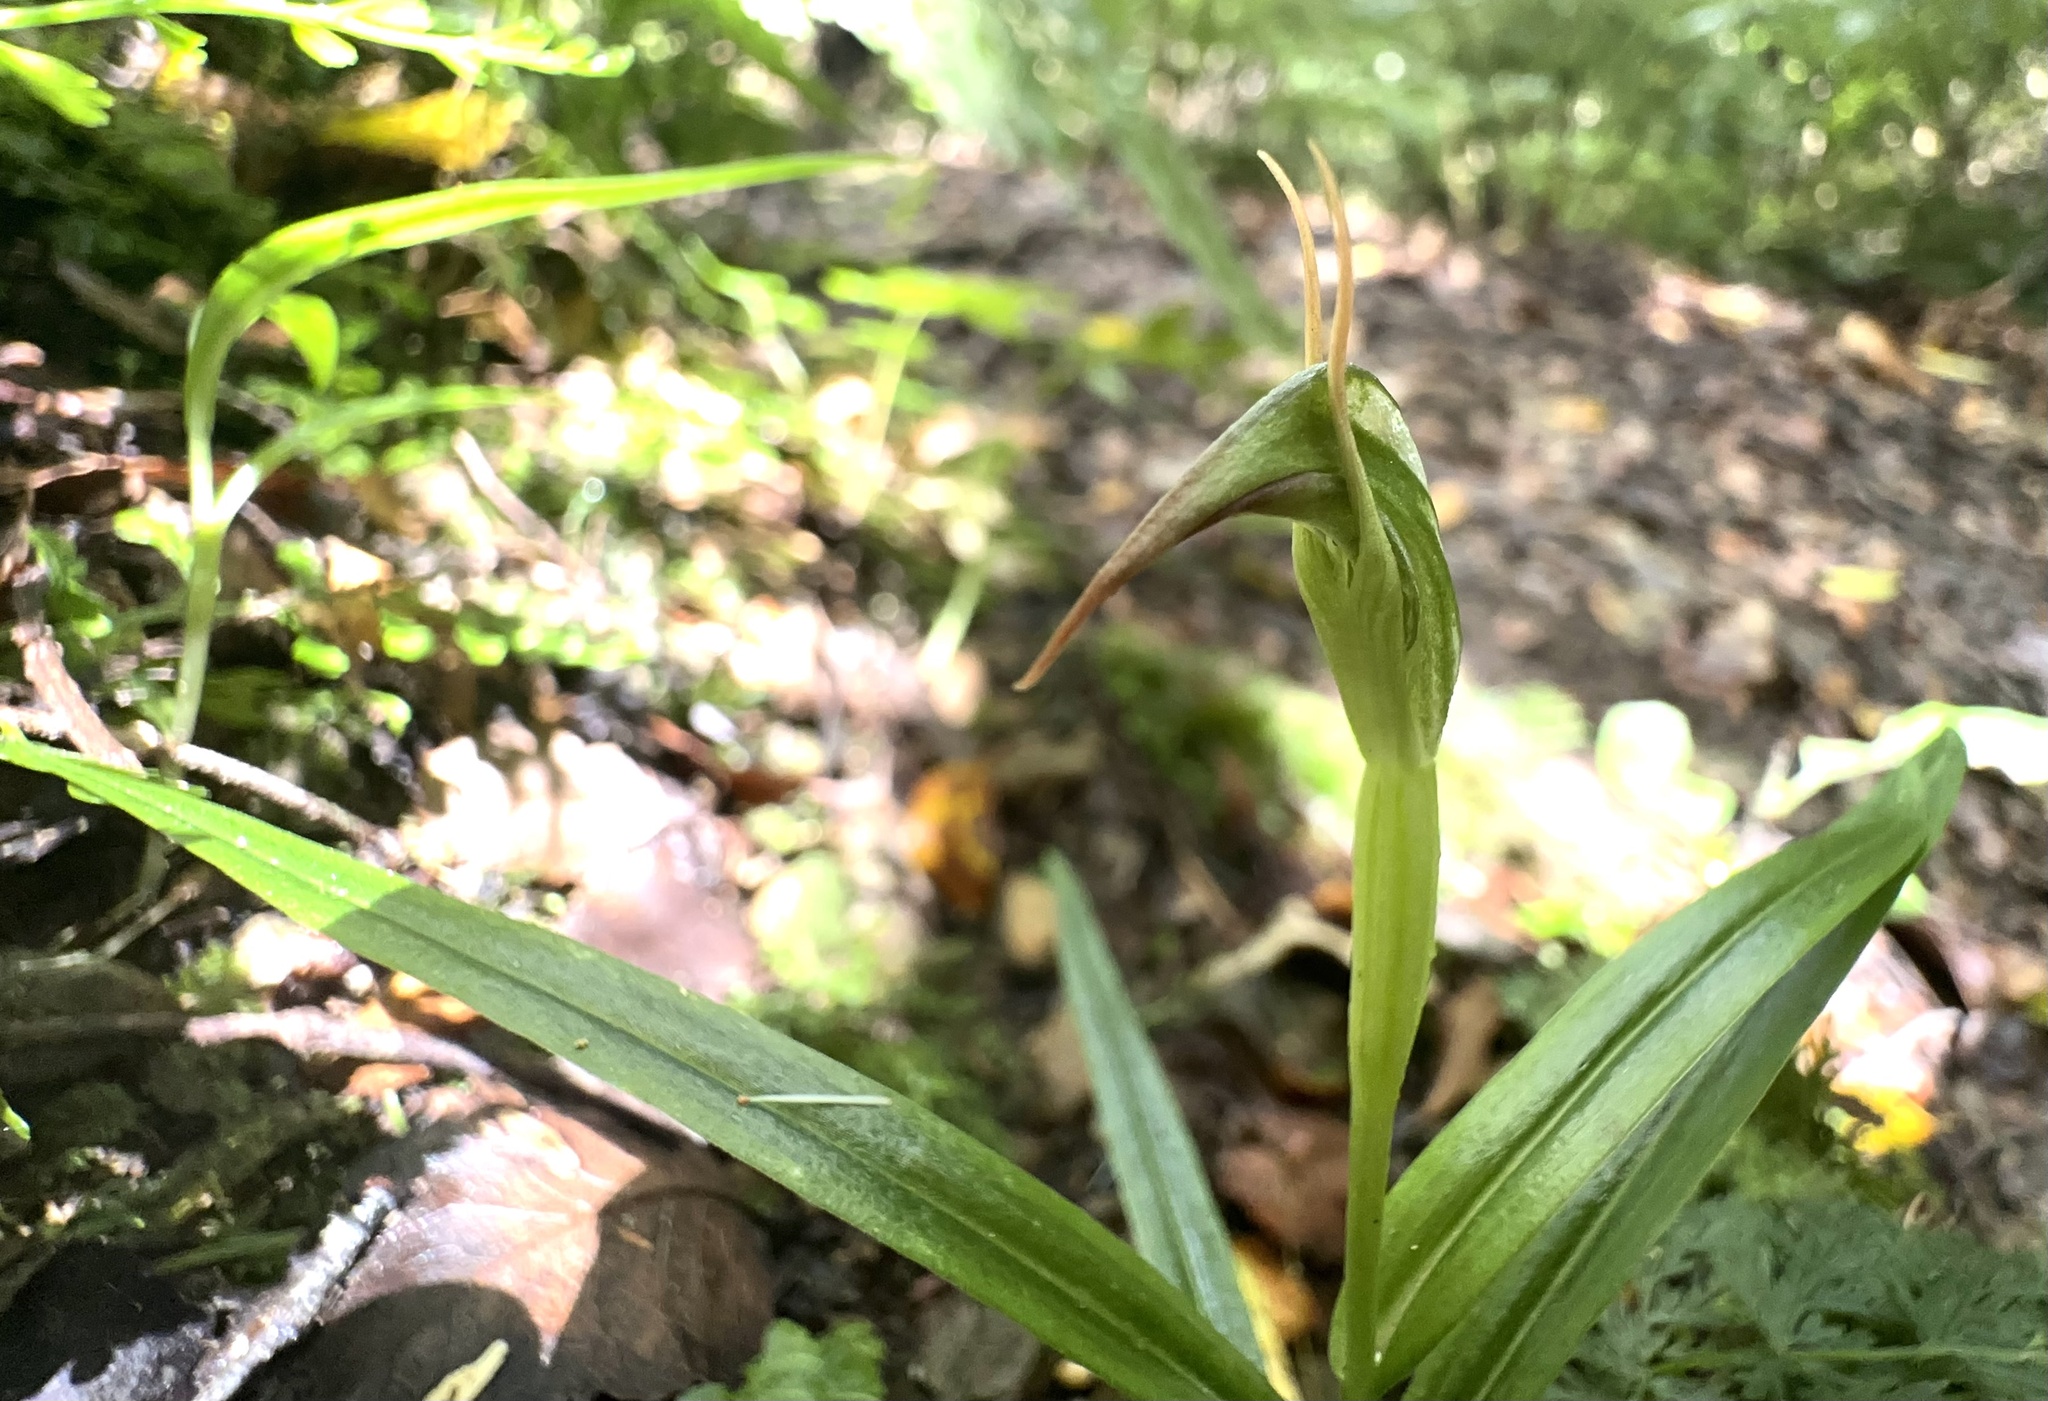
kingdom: Plantae
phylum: Tracheophyta
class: Liliopsida
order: Asparagales
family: Orchidaceae
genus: Pterostylis
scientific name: Pterostylis graminea
